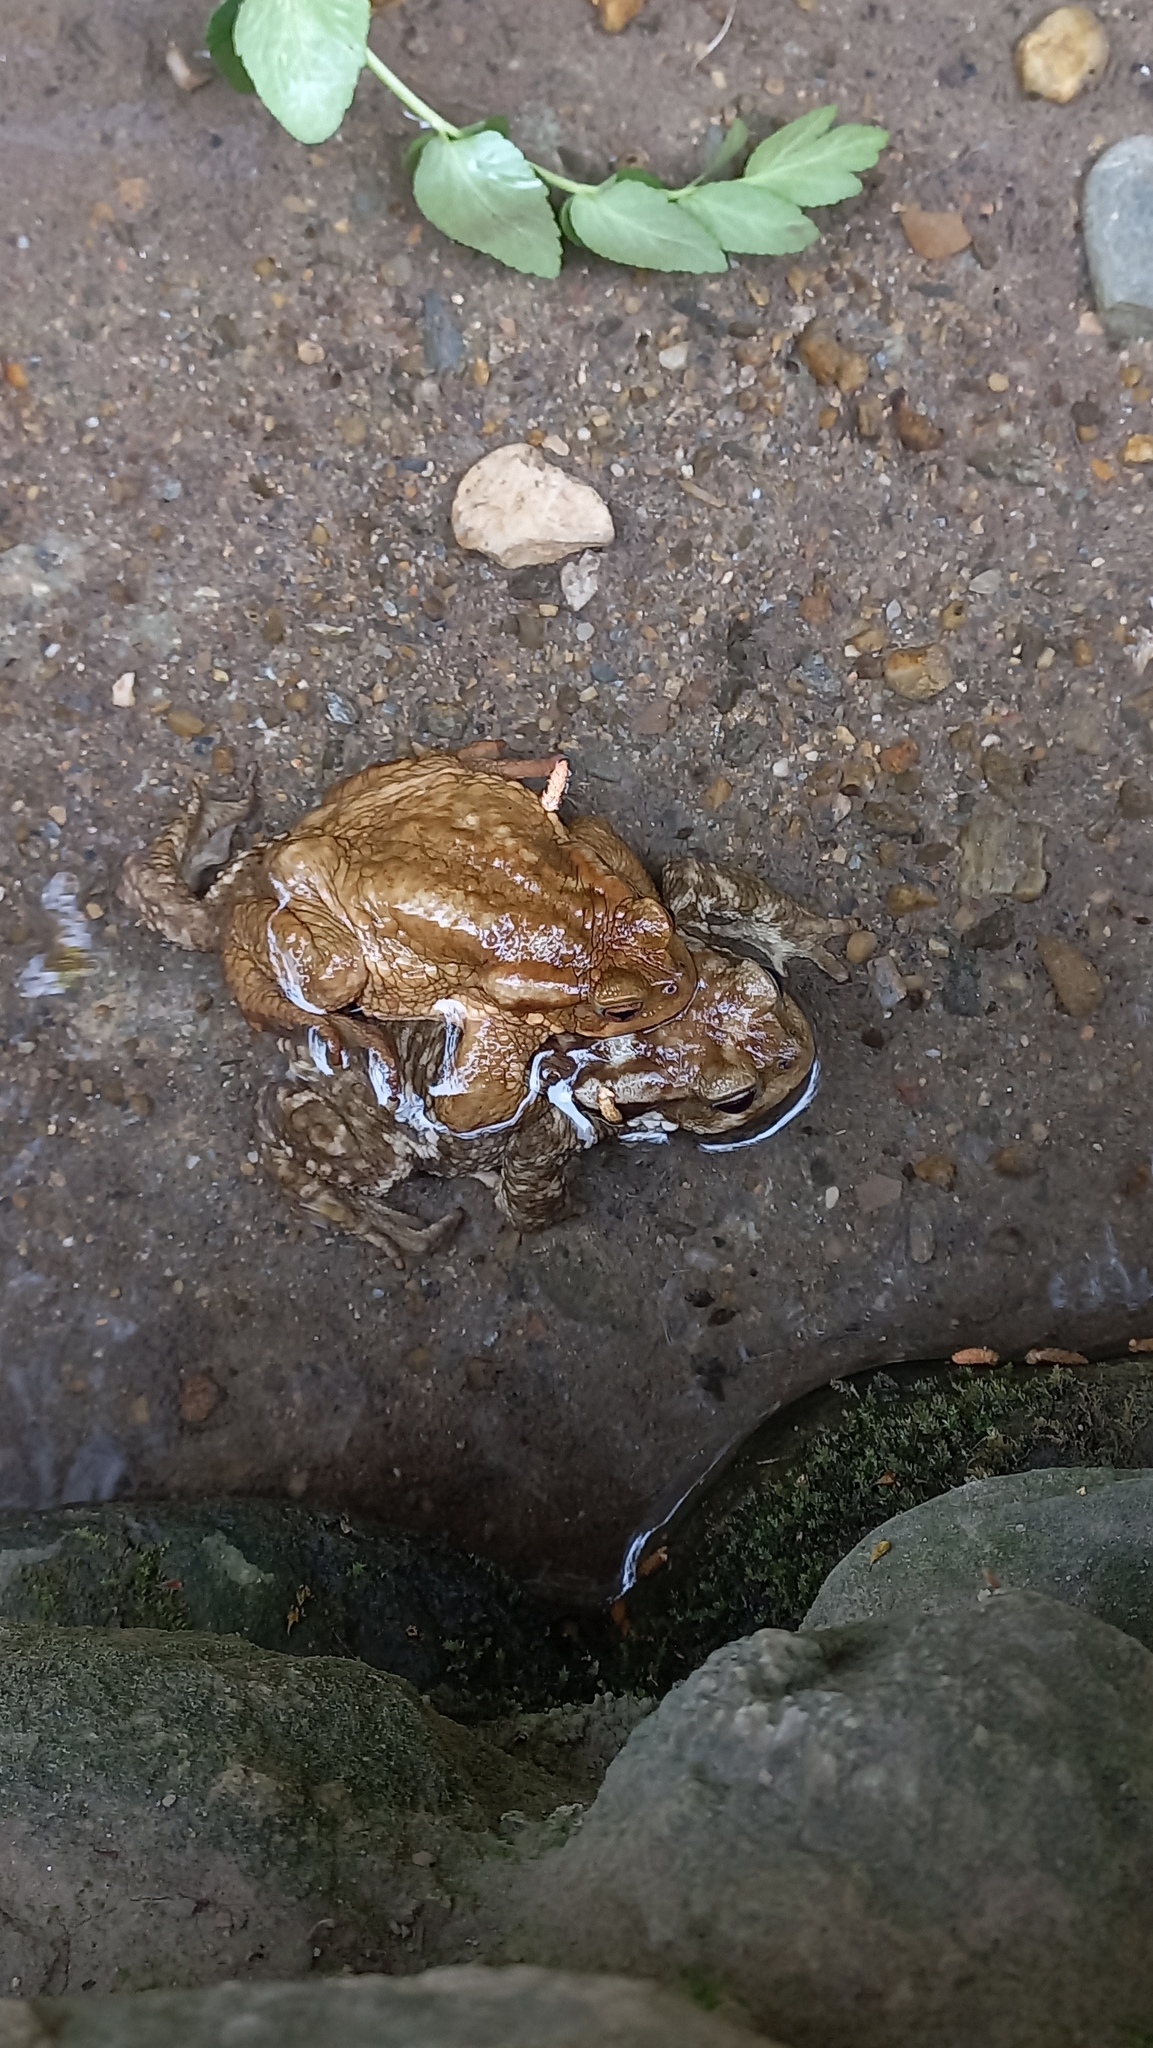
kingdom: Animalia
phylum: Chordata
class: Amphibia
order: Anura
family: Bufonidae
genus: Bufo
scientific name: Bufo spinosus
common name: Western common toad
